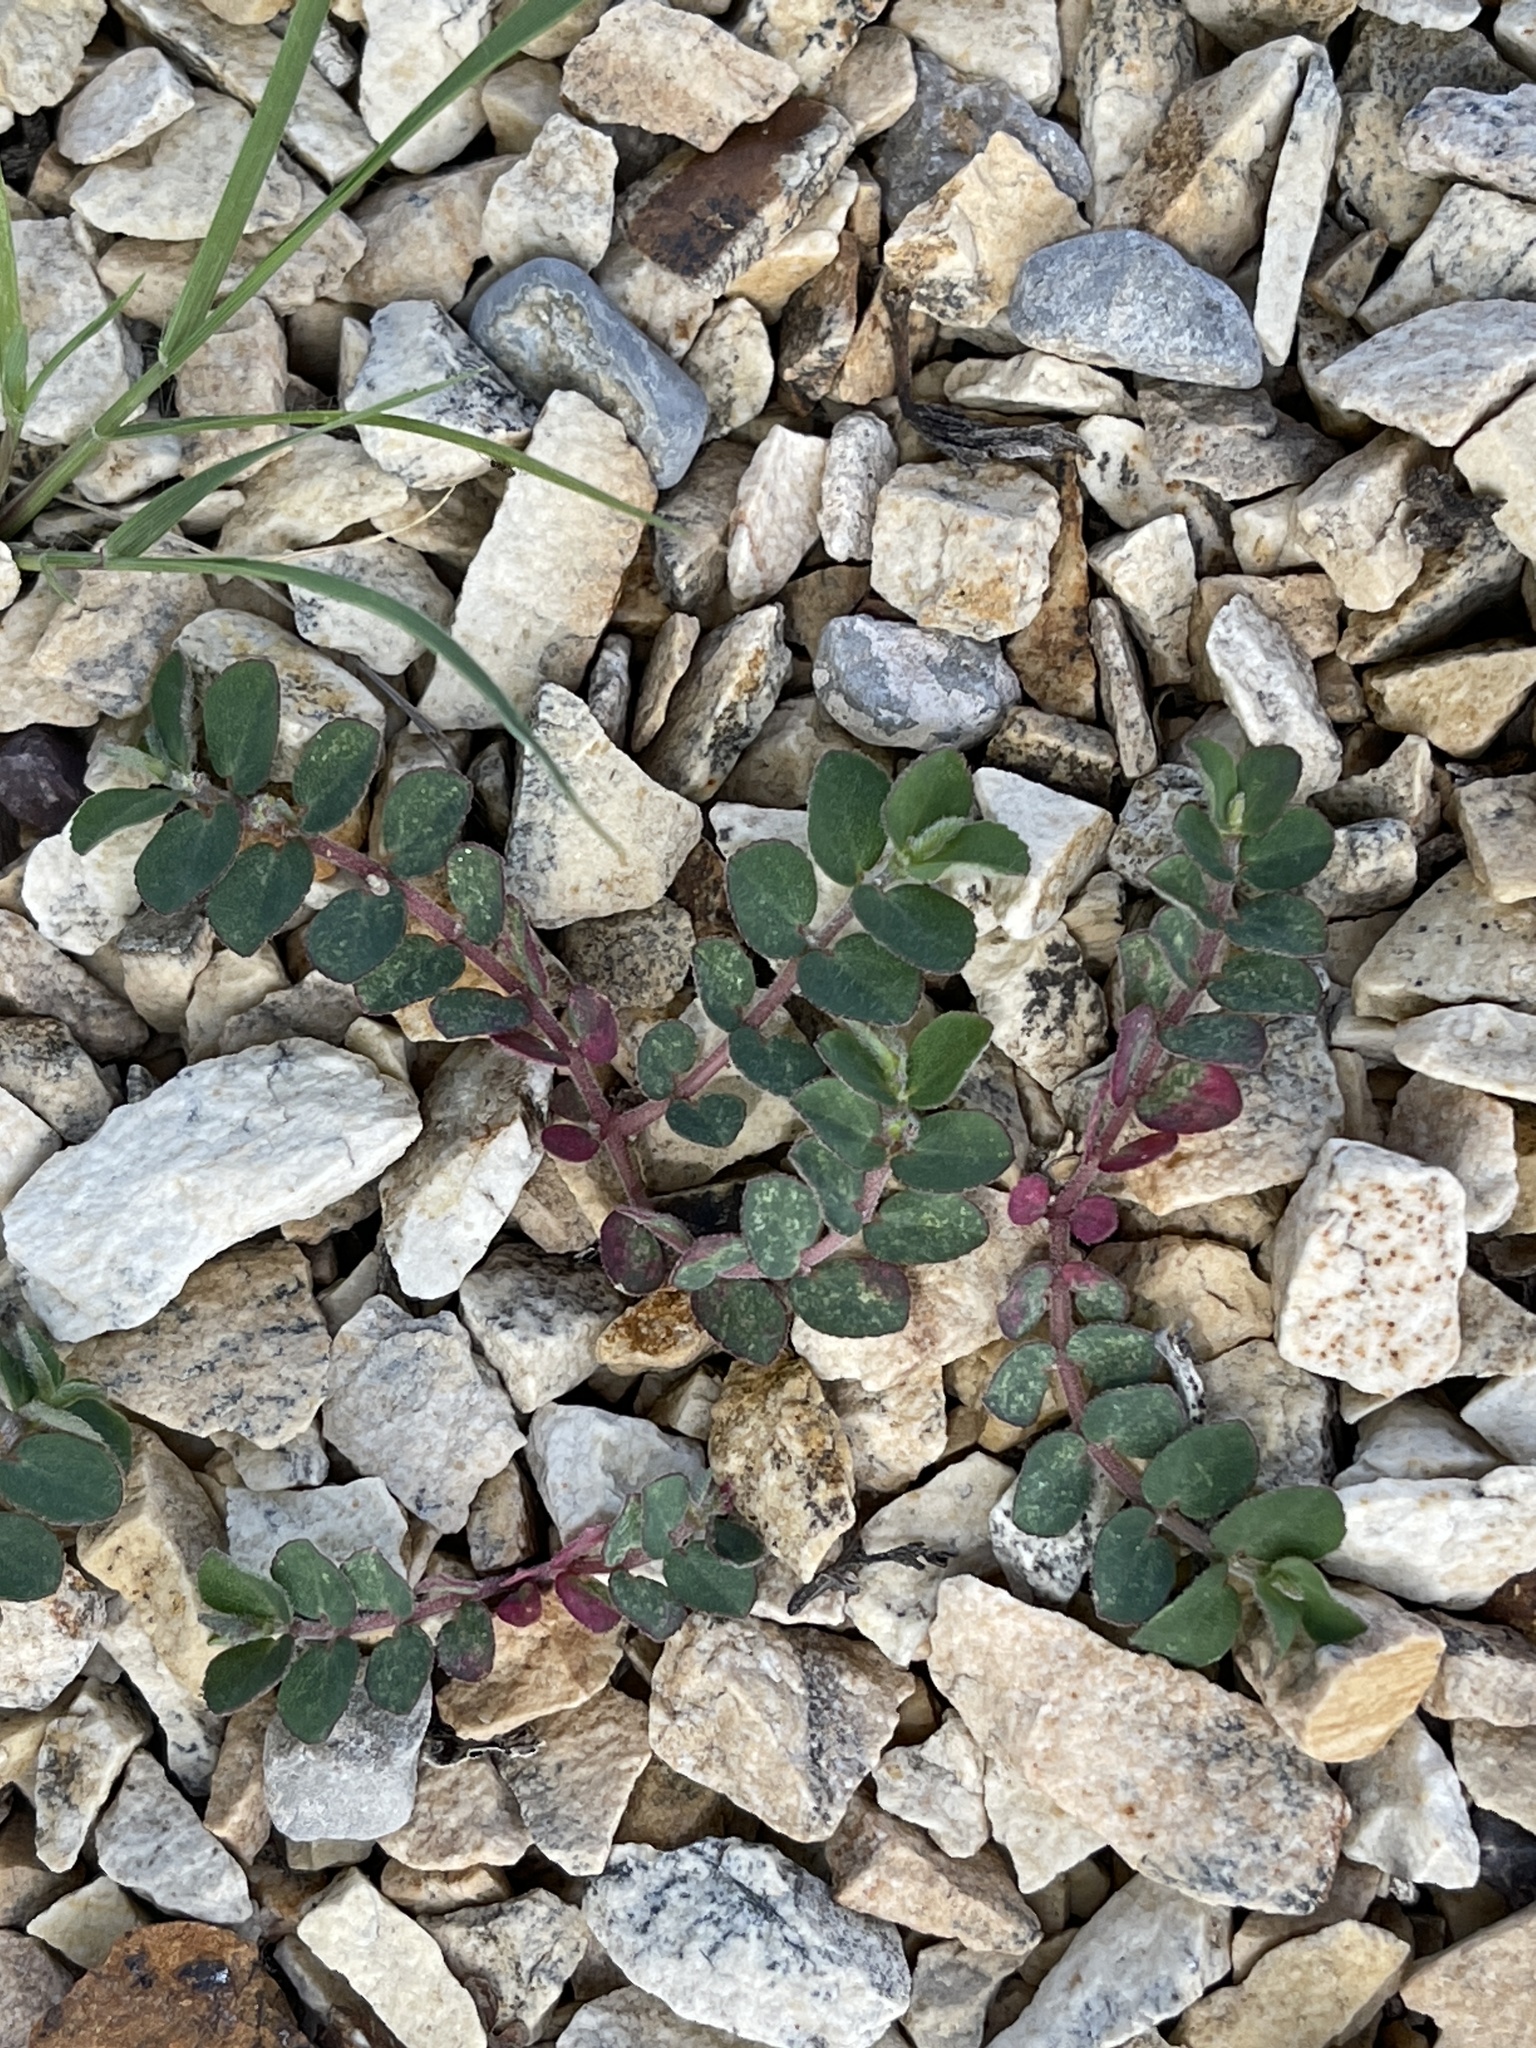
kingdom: Plantae
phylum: Tracheophyta
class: Magnoliopsida
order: Malpighiales
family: Euphorbiaceae
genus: Euphorbia
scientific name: Euphorbia prostrata
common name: Prostrate sandmat
